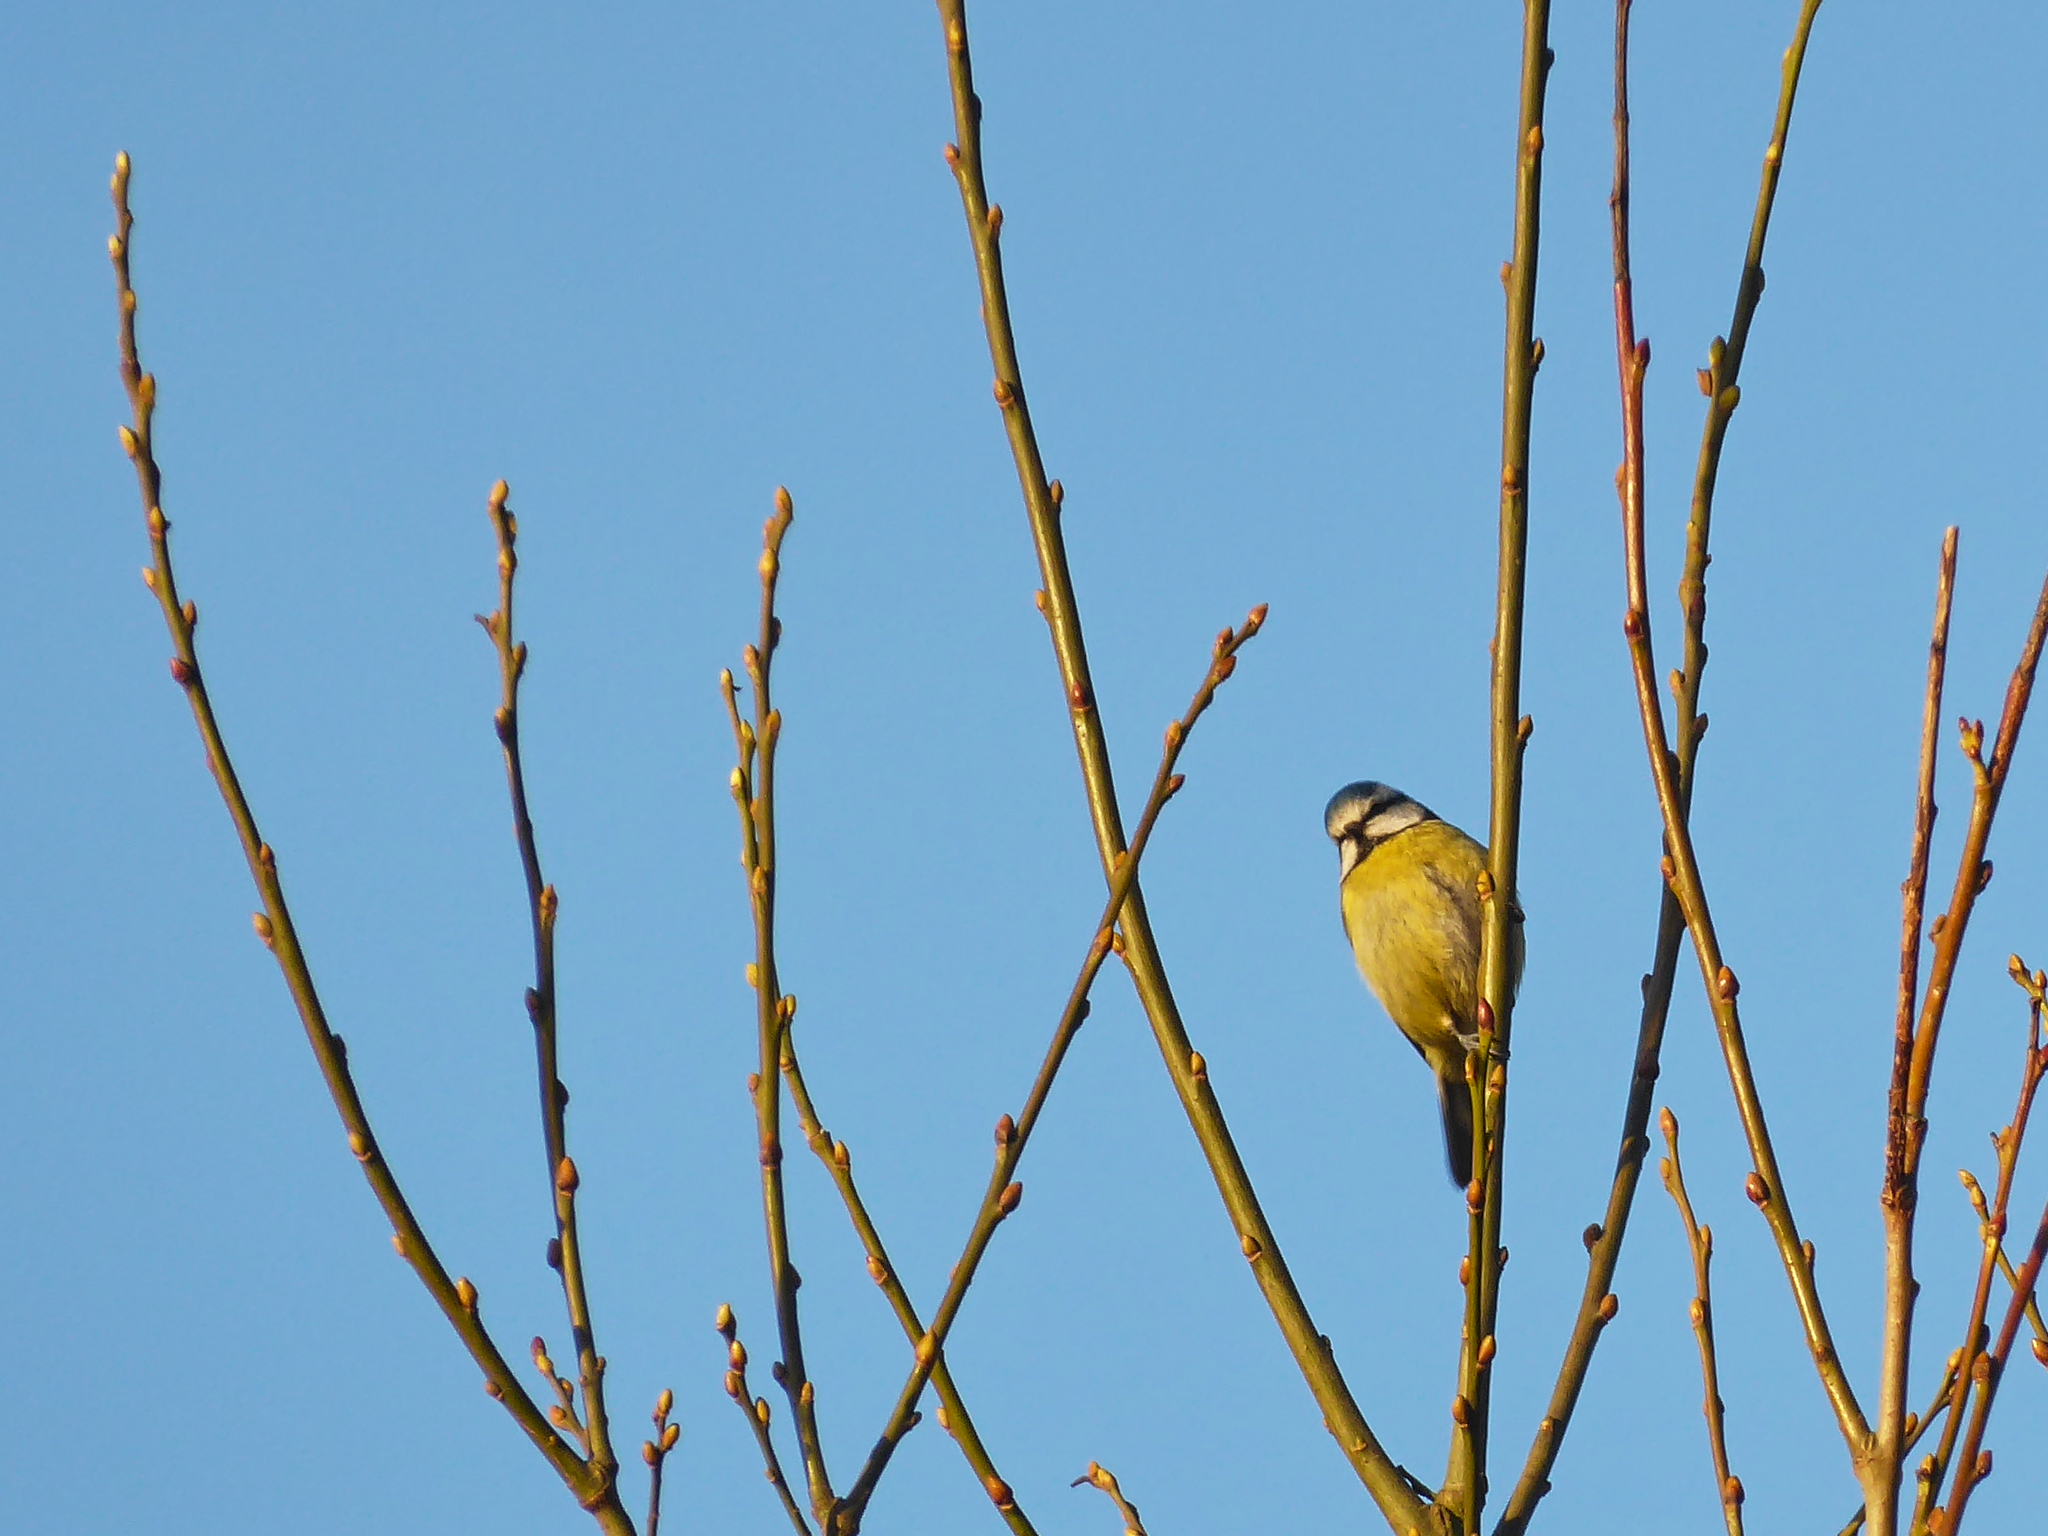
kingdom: Animalia
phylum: Chordata
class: Aves
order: Passeriformes
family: Paridae
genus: Cyanistes
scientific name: Cyanistes caeruleus
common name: Eurasian blue tit
